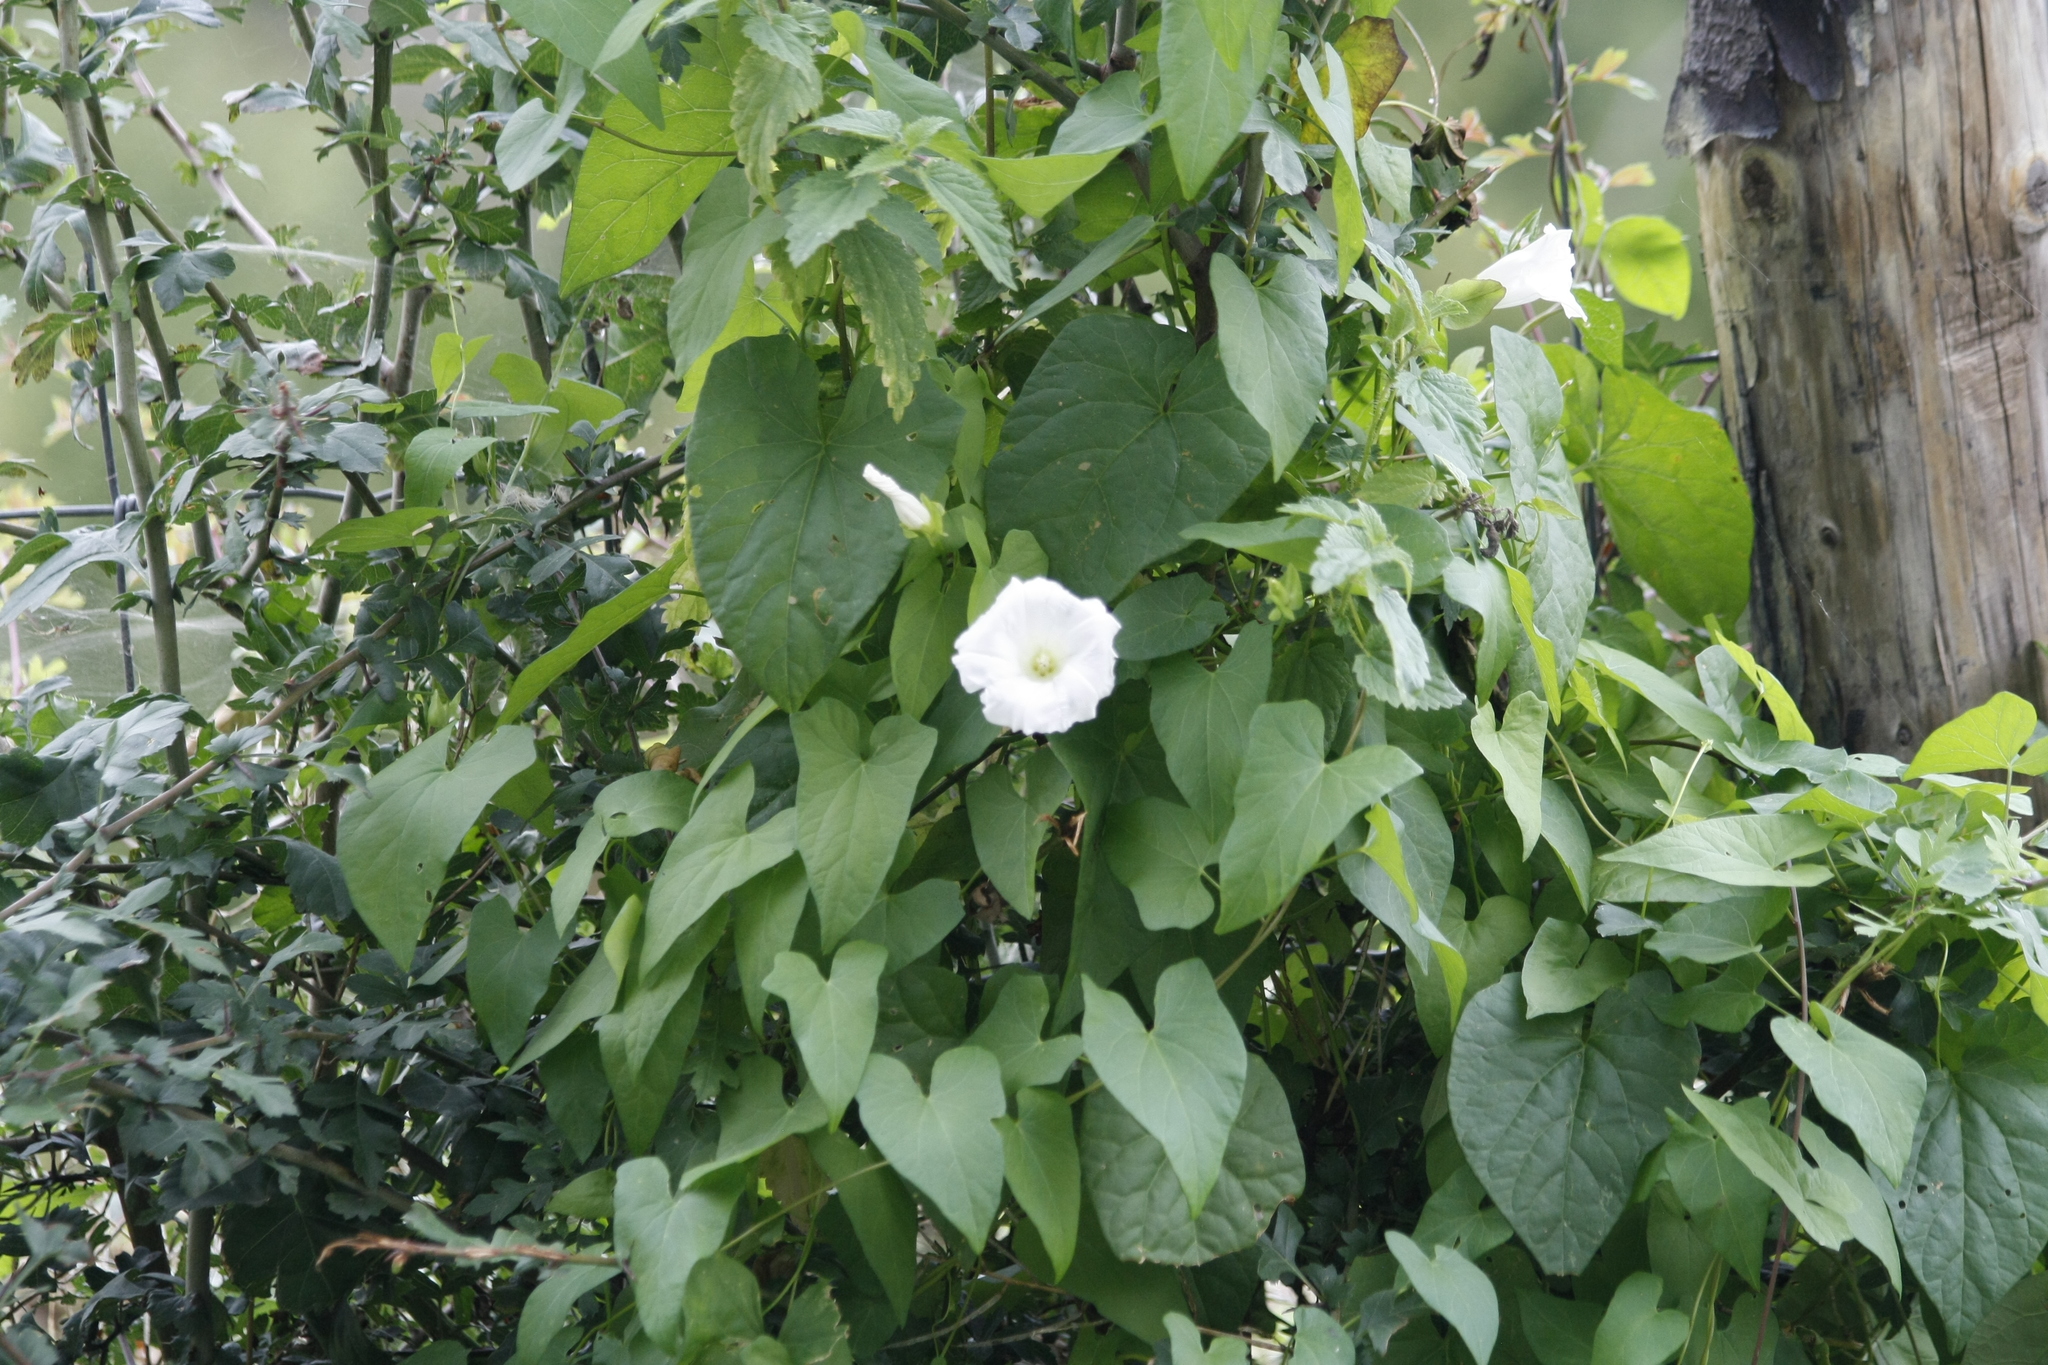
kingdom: Plantae
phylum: Tracheophyta
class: Magnoliopsida
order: Solanales
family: Convolvulaceae
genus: Calystegia
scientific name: Calystegia sepium
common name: Hedge bindweed
